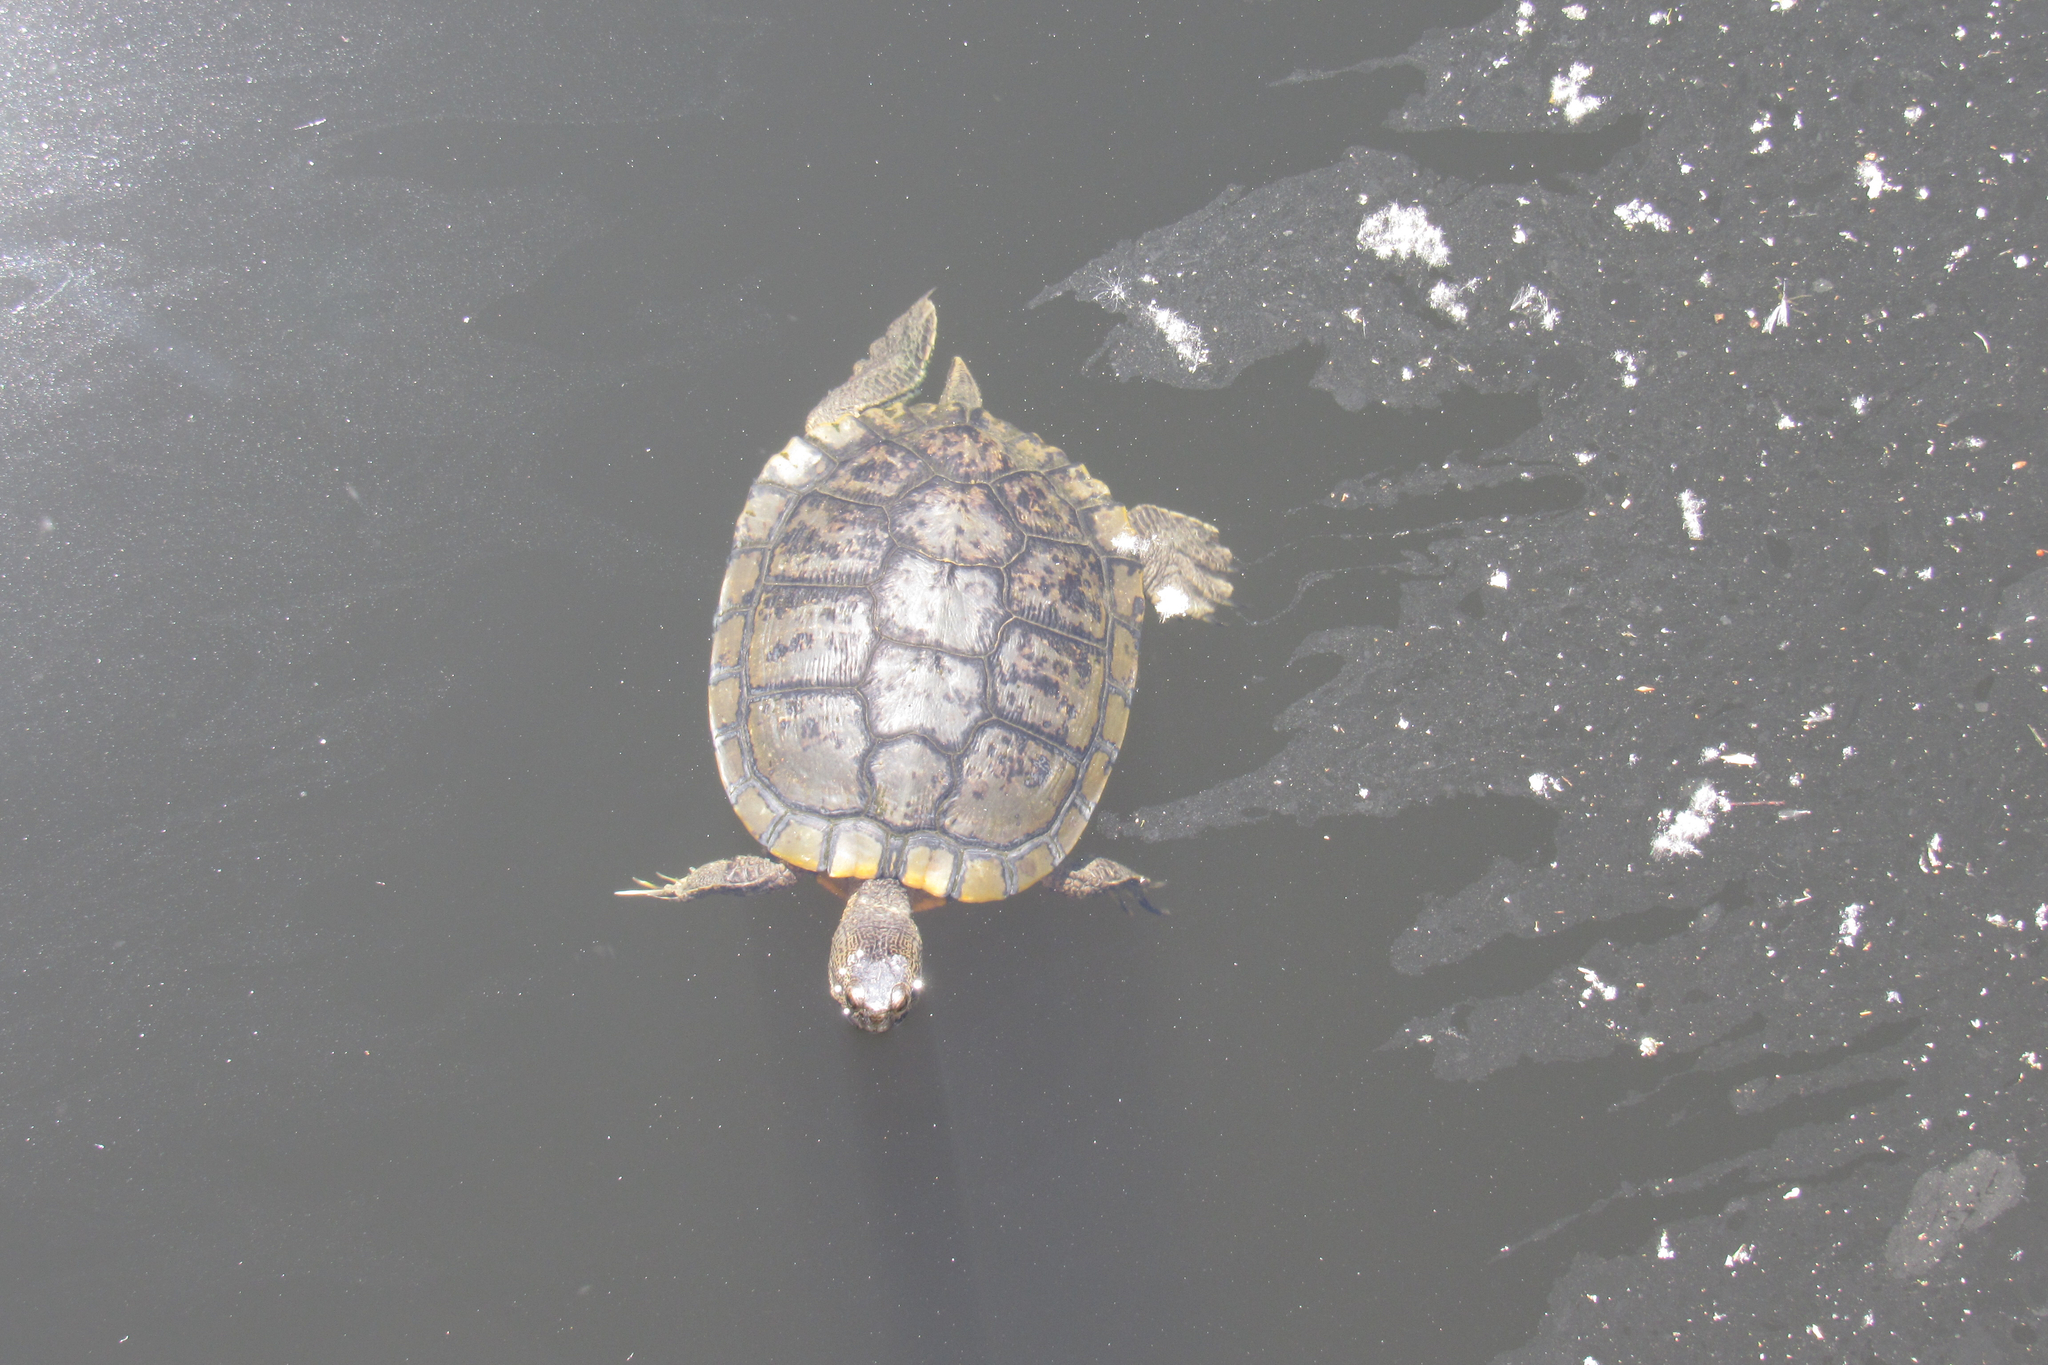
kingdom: Animalia
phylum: Chordata
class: Testudines
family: Emydidae
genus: Trachemys
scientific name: Trachemys scripta
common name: Slider
